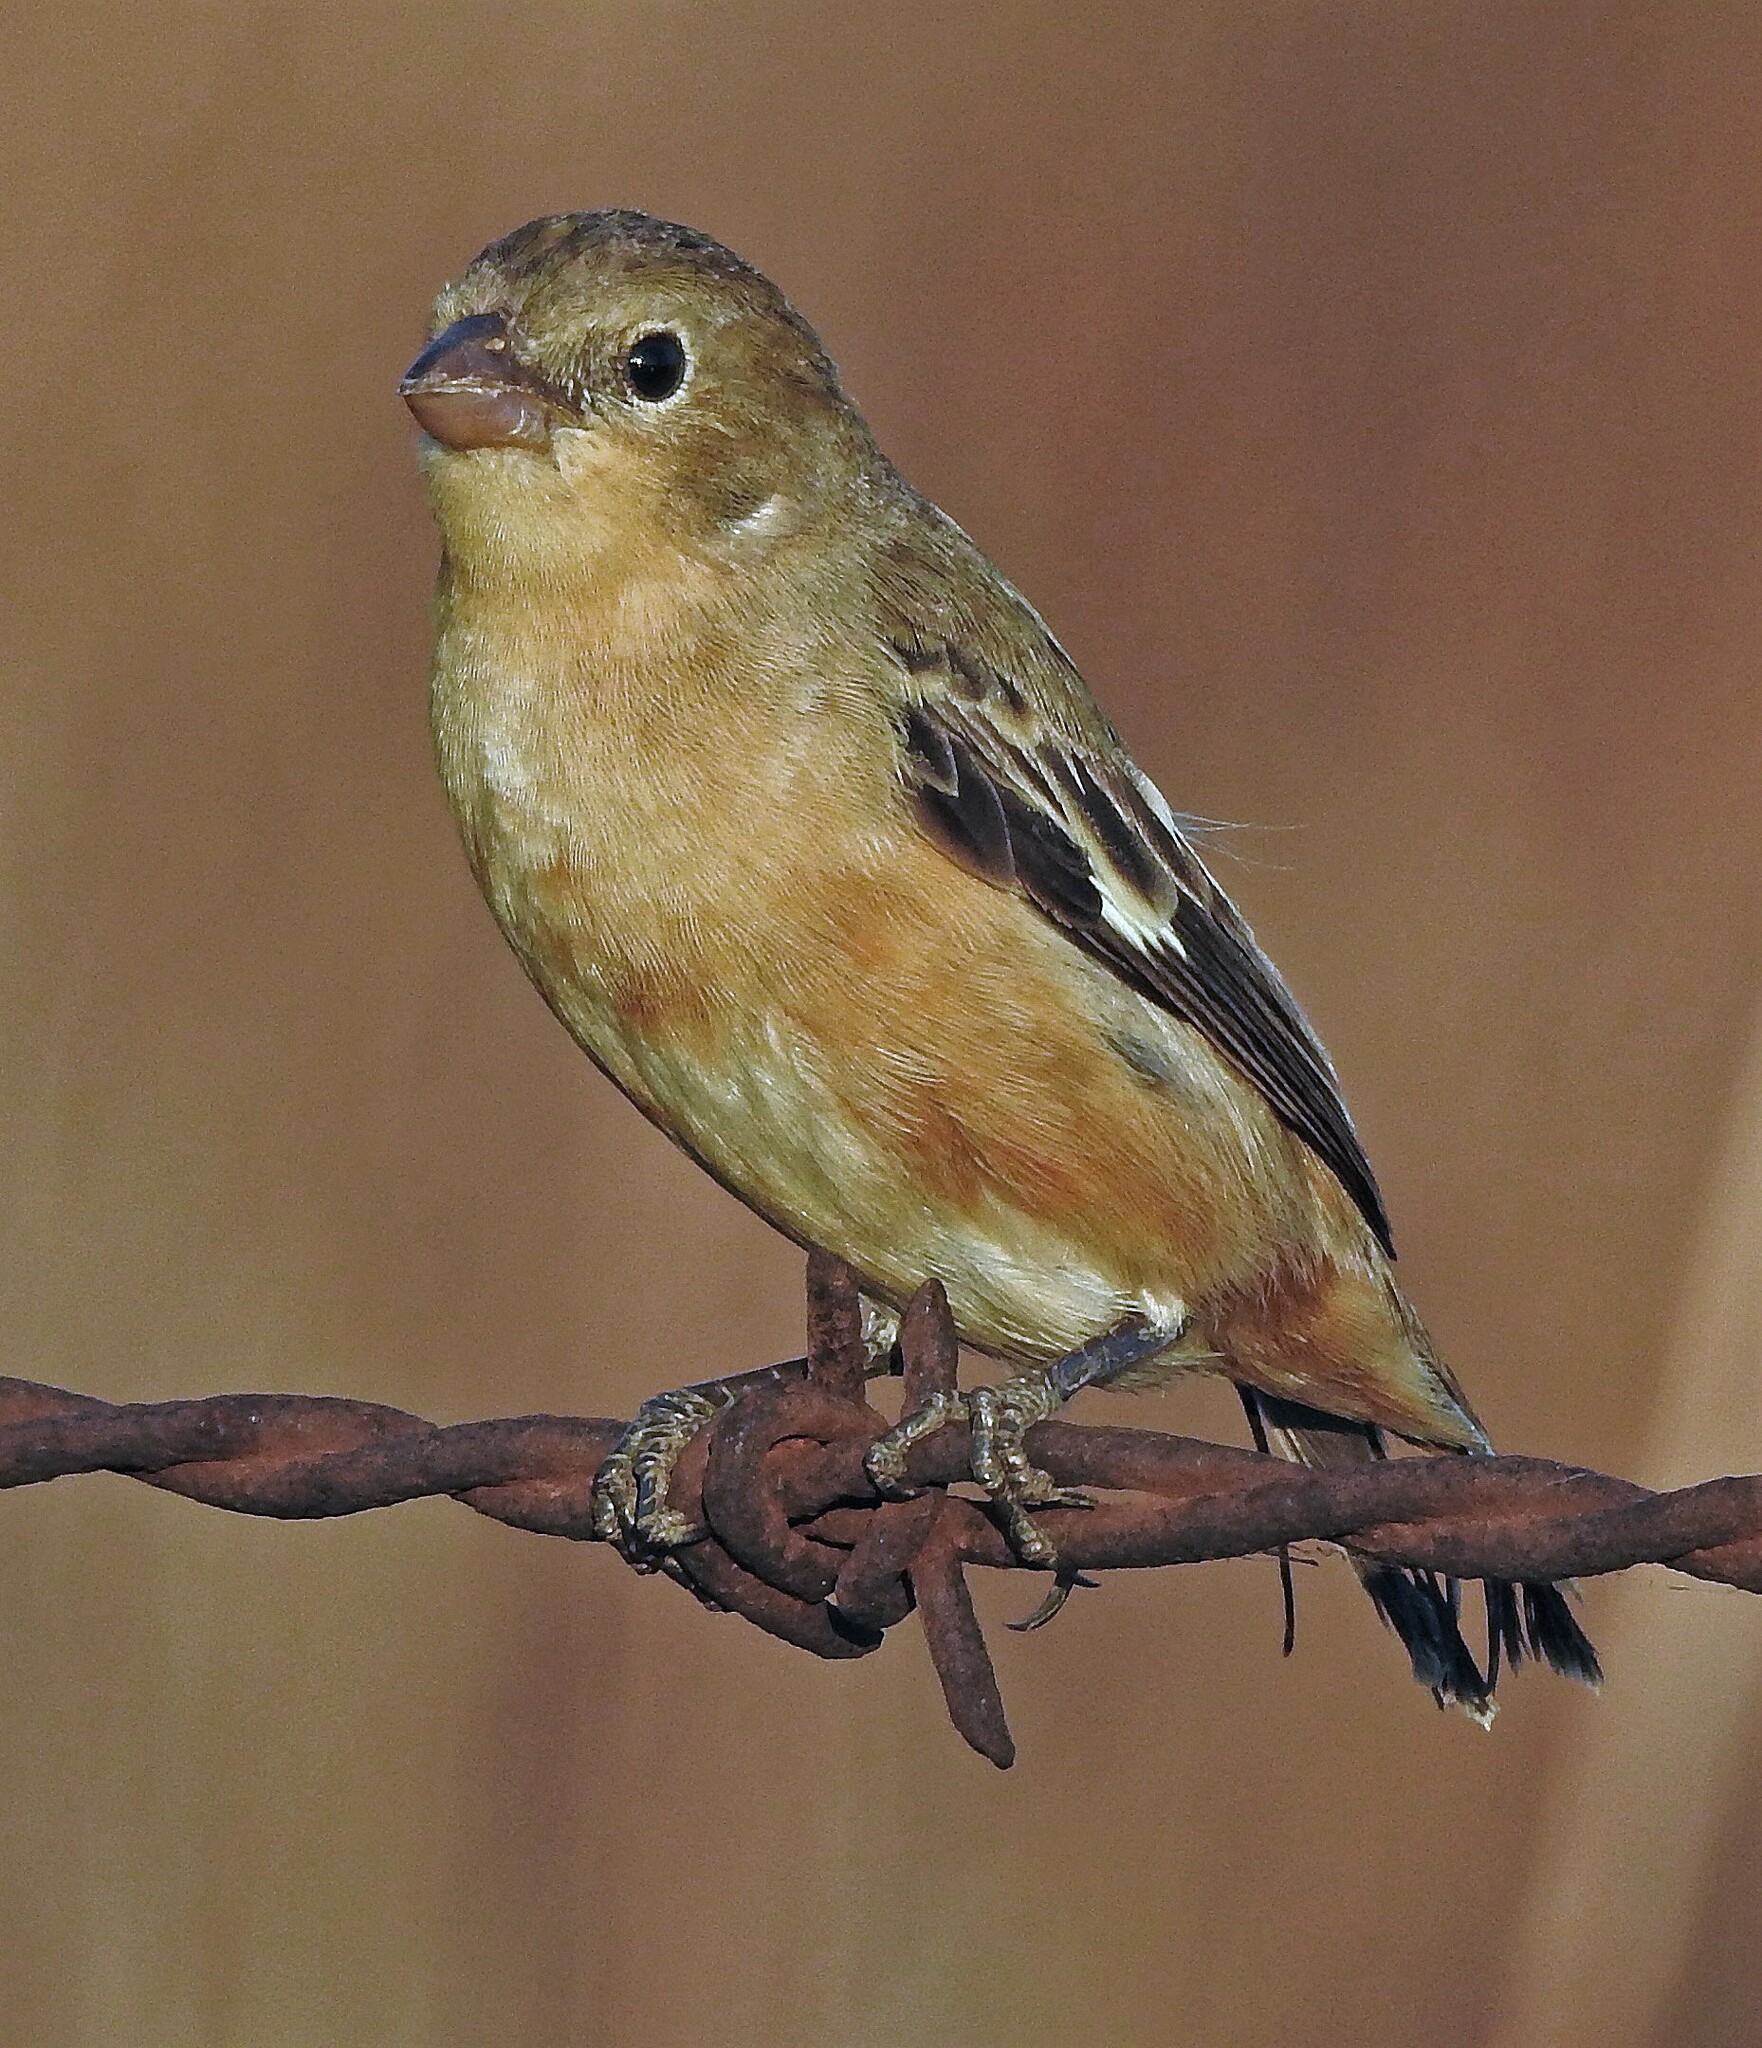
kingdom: Animalia
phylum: Chordata
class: Aves
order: Passeriformes
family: Thraupidae
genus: Sporophila
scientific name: Sporophila collaris
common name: Rusty-collared seedeater
